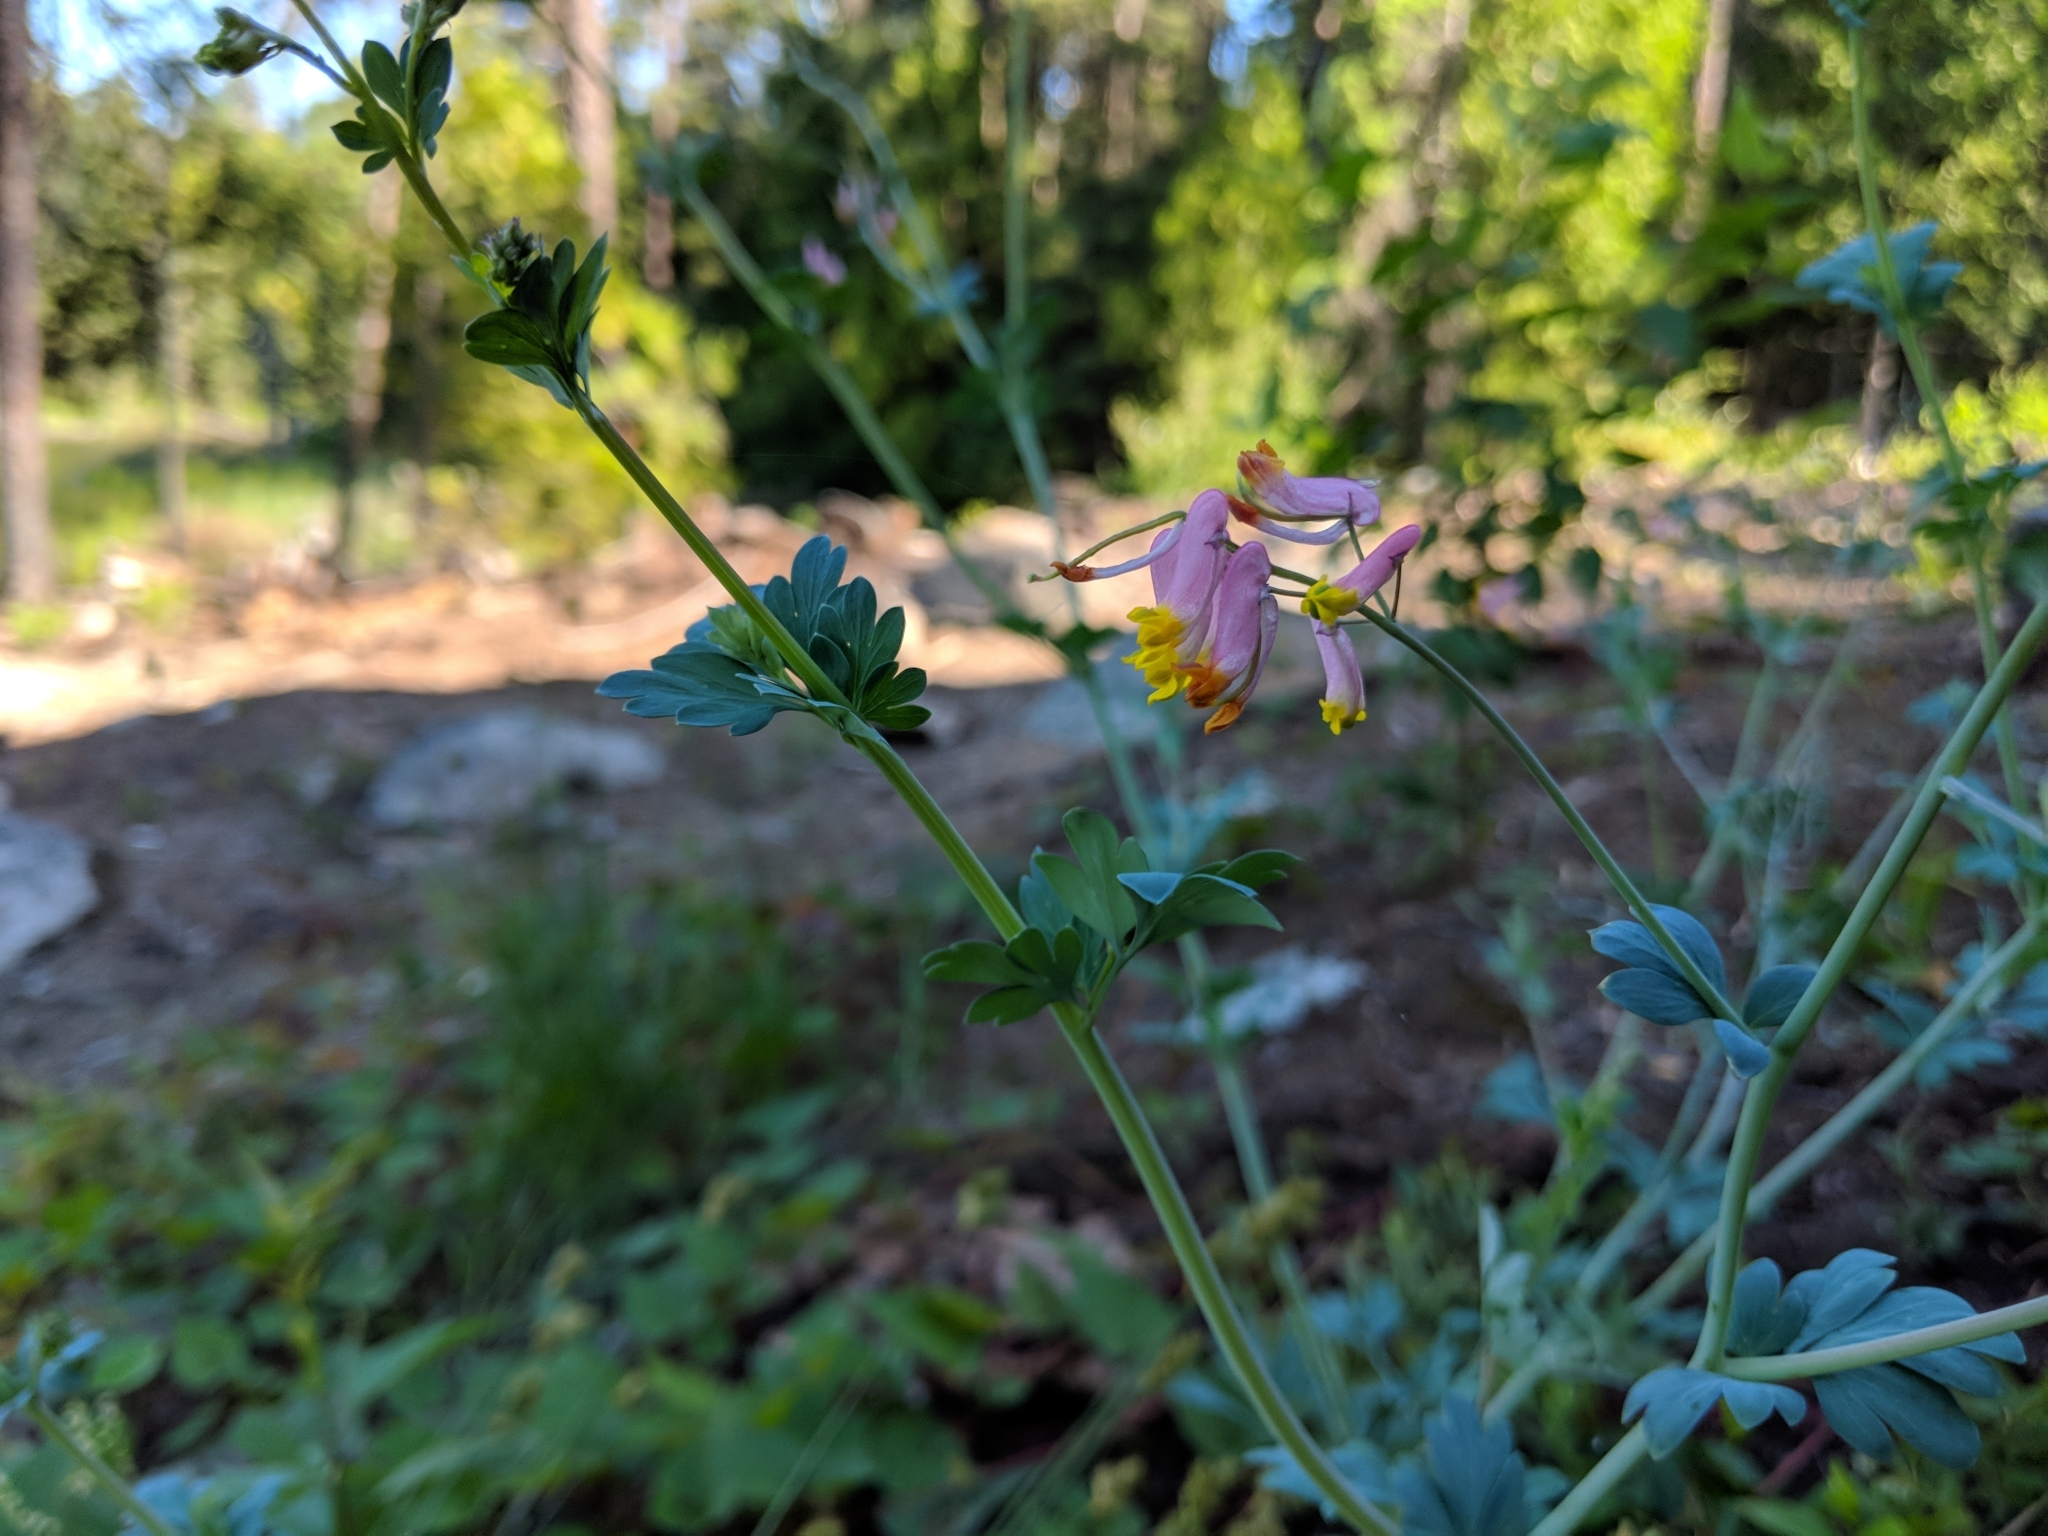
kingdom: Plantae
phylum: Tracheophyta
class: Magnoliopsida
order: Ranunculales
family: Papaveraceae
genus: Capnoides
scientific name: Capnoides sempervirens
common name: Rock harlequin
